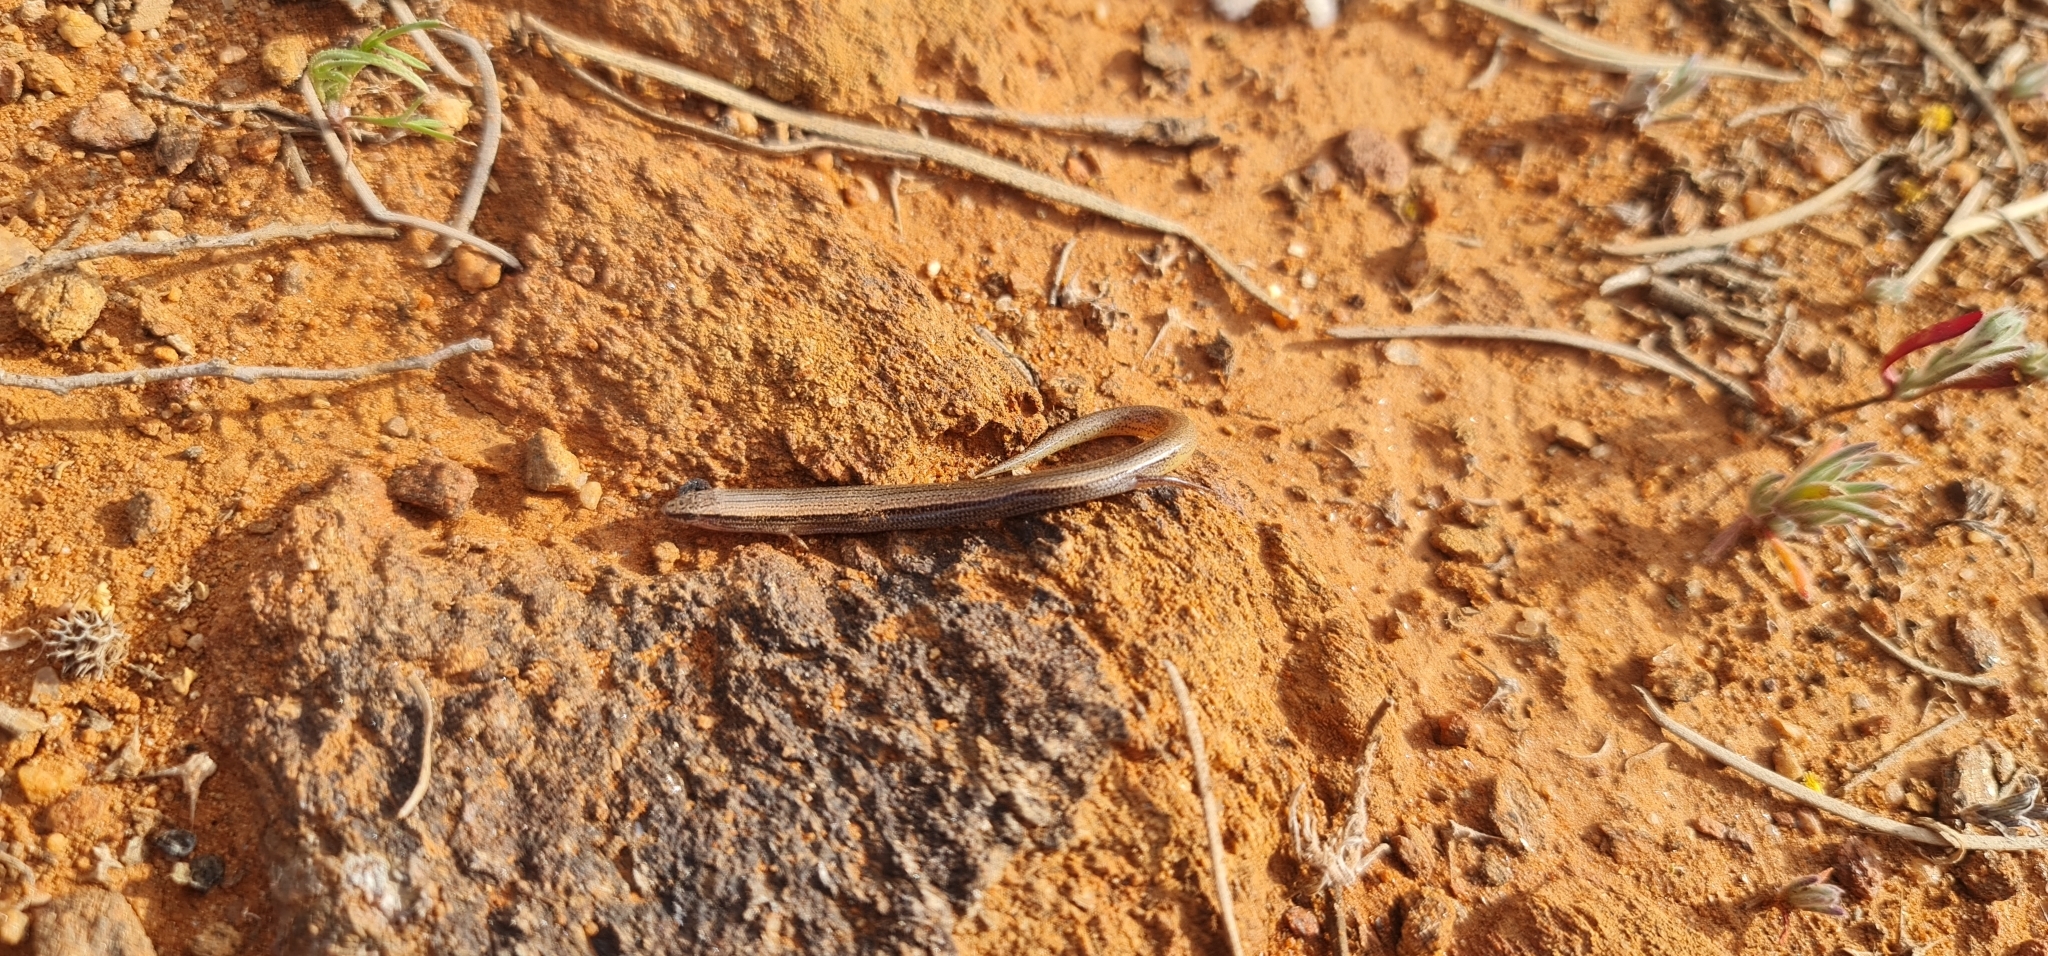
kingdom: Animalia
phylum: Chordata
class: Squamata
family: Scincidae
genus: Lerista
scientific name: Lerista timida
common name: Dwarf three-toed slider
